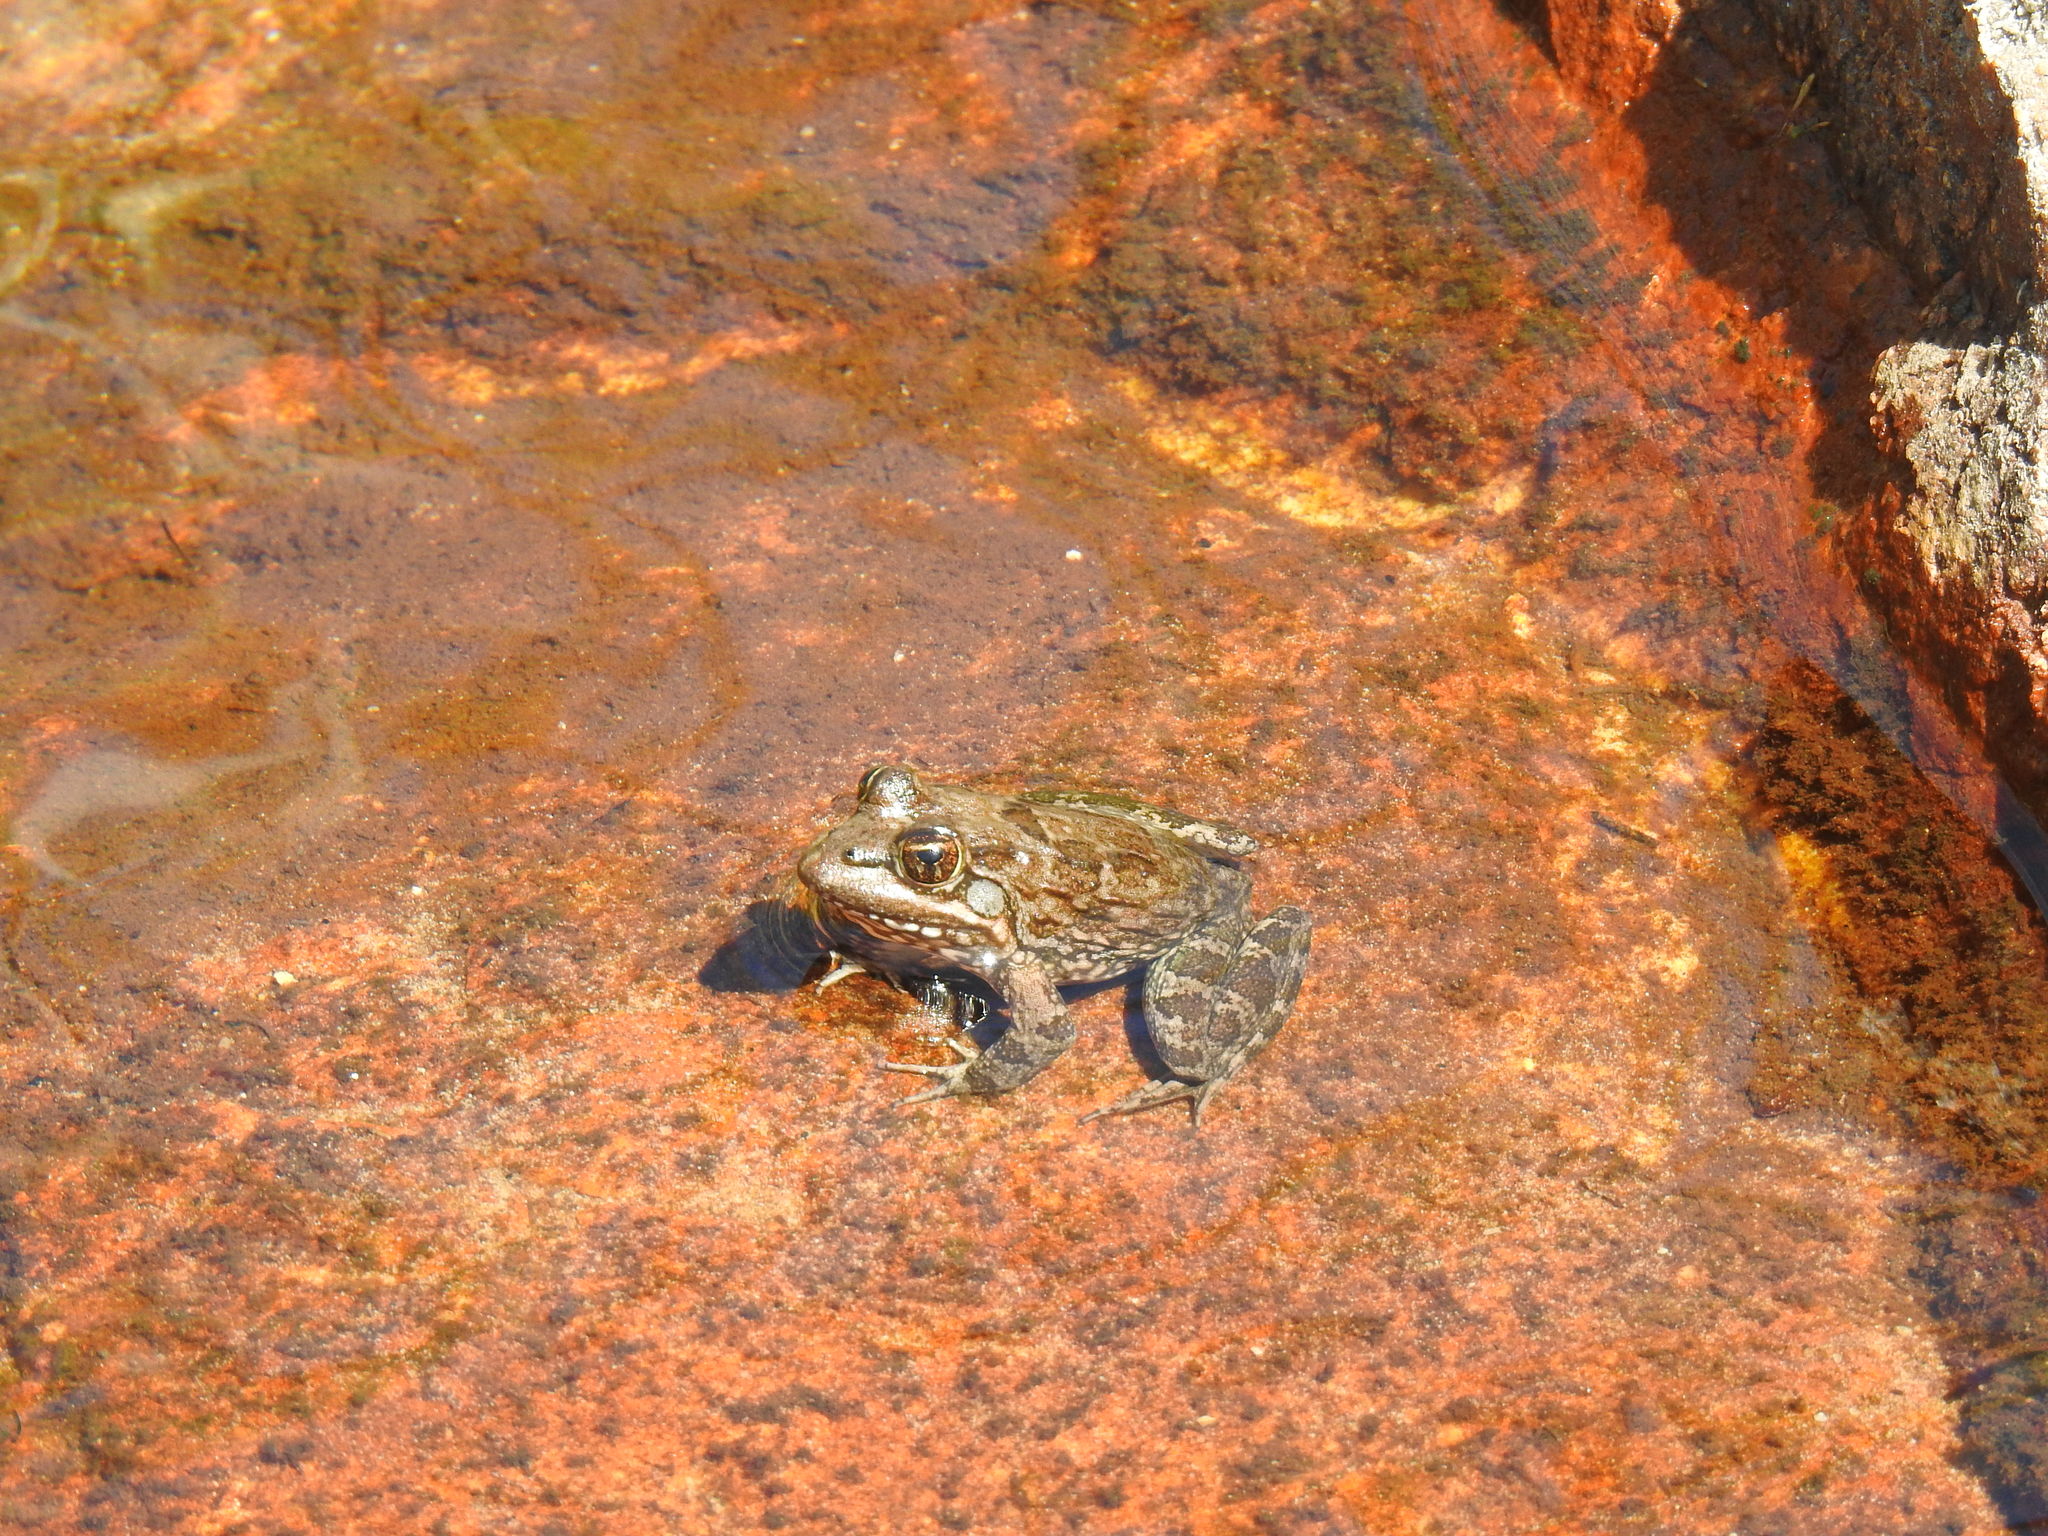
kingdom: Animalia
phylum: Chordata
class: Amphibia
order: Anura
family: Pyxicephalidae
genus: Amietia
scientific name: Amietia fuscigula
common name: Cape rana
